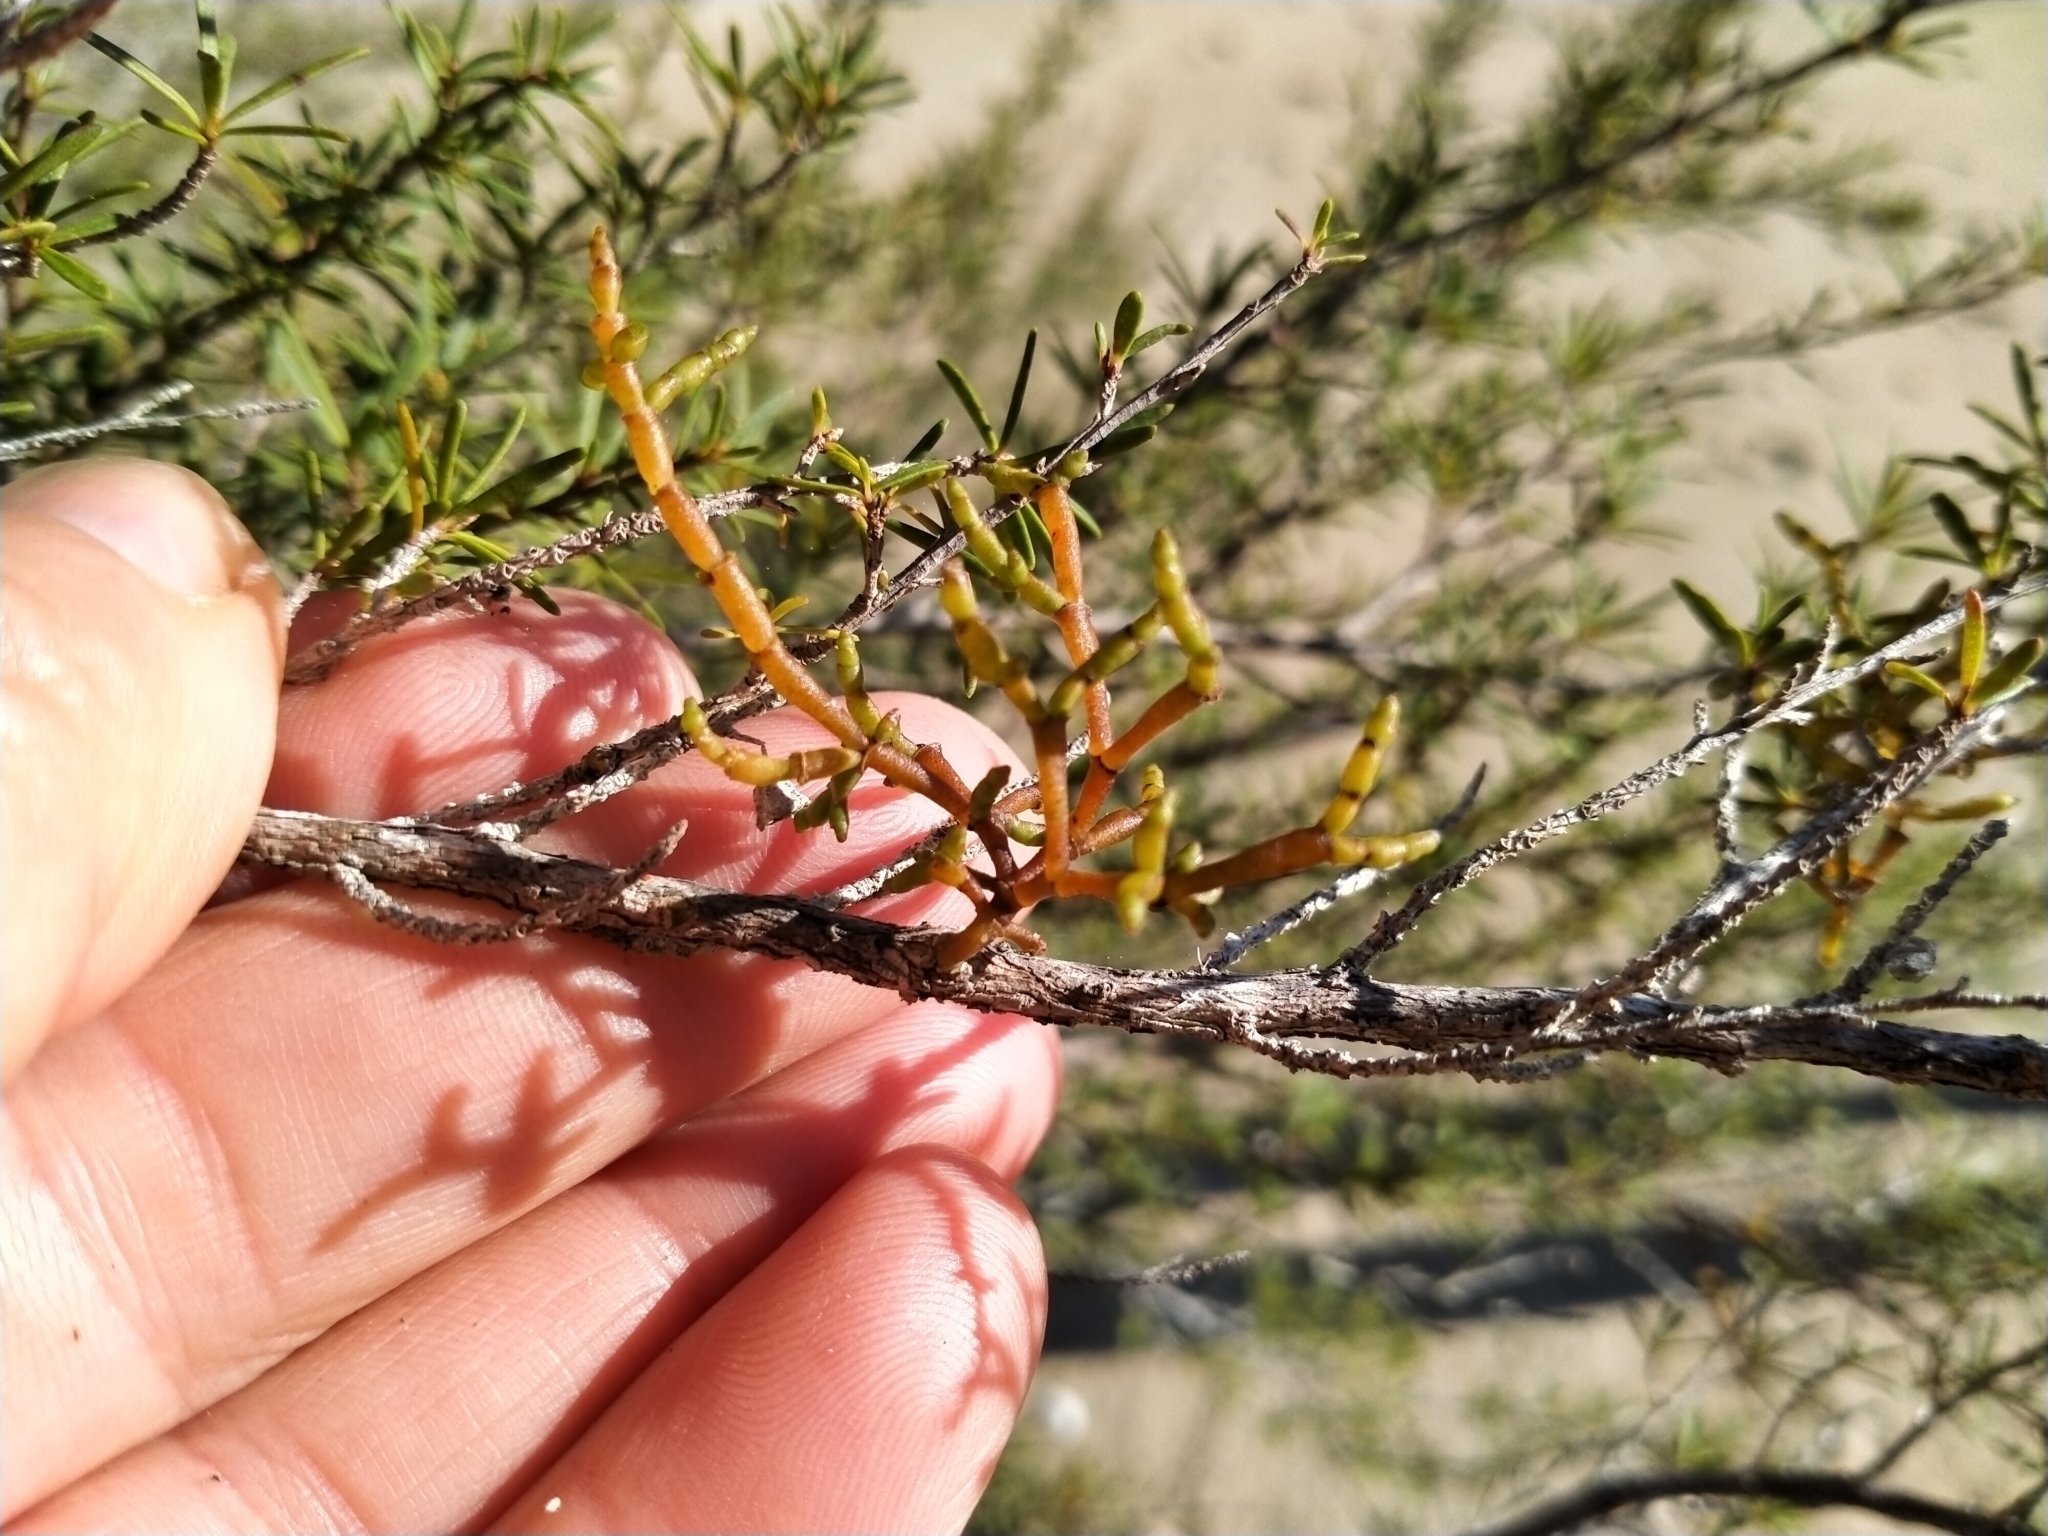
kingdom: Plantae
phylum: Tracheophyta
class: Magnoliopsida
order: Santalales
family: Viscaceae
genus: Korthalsella
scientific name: Korthalsella salicornioides
